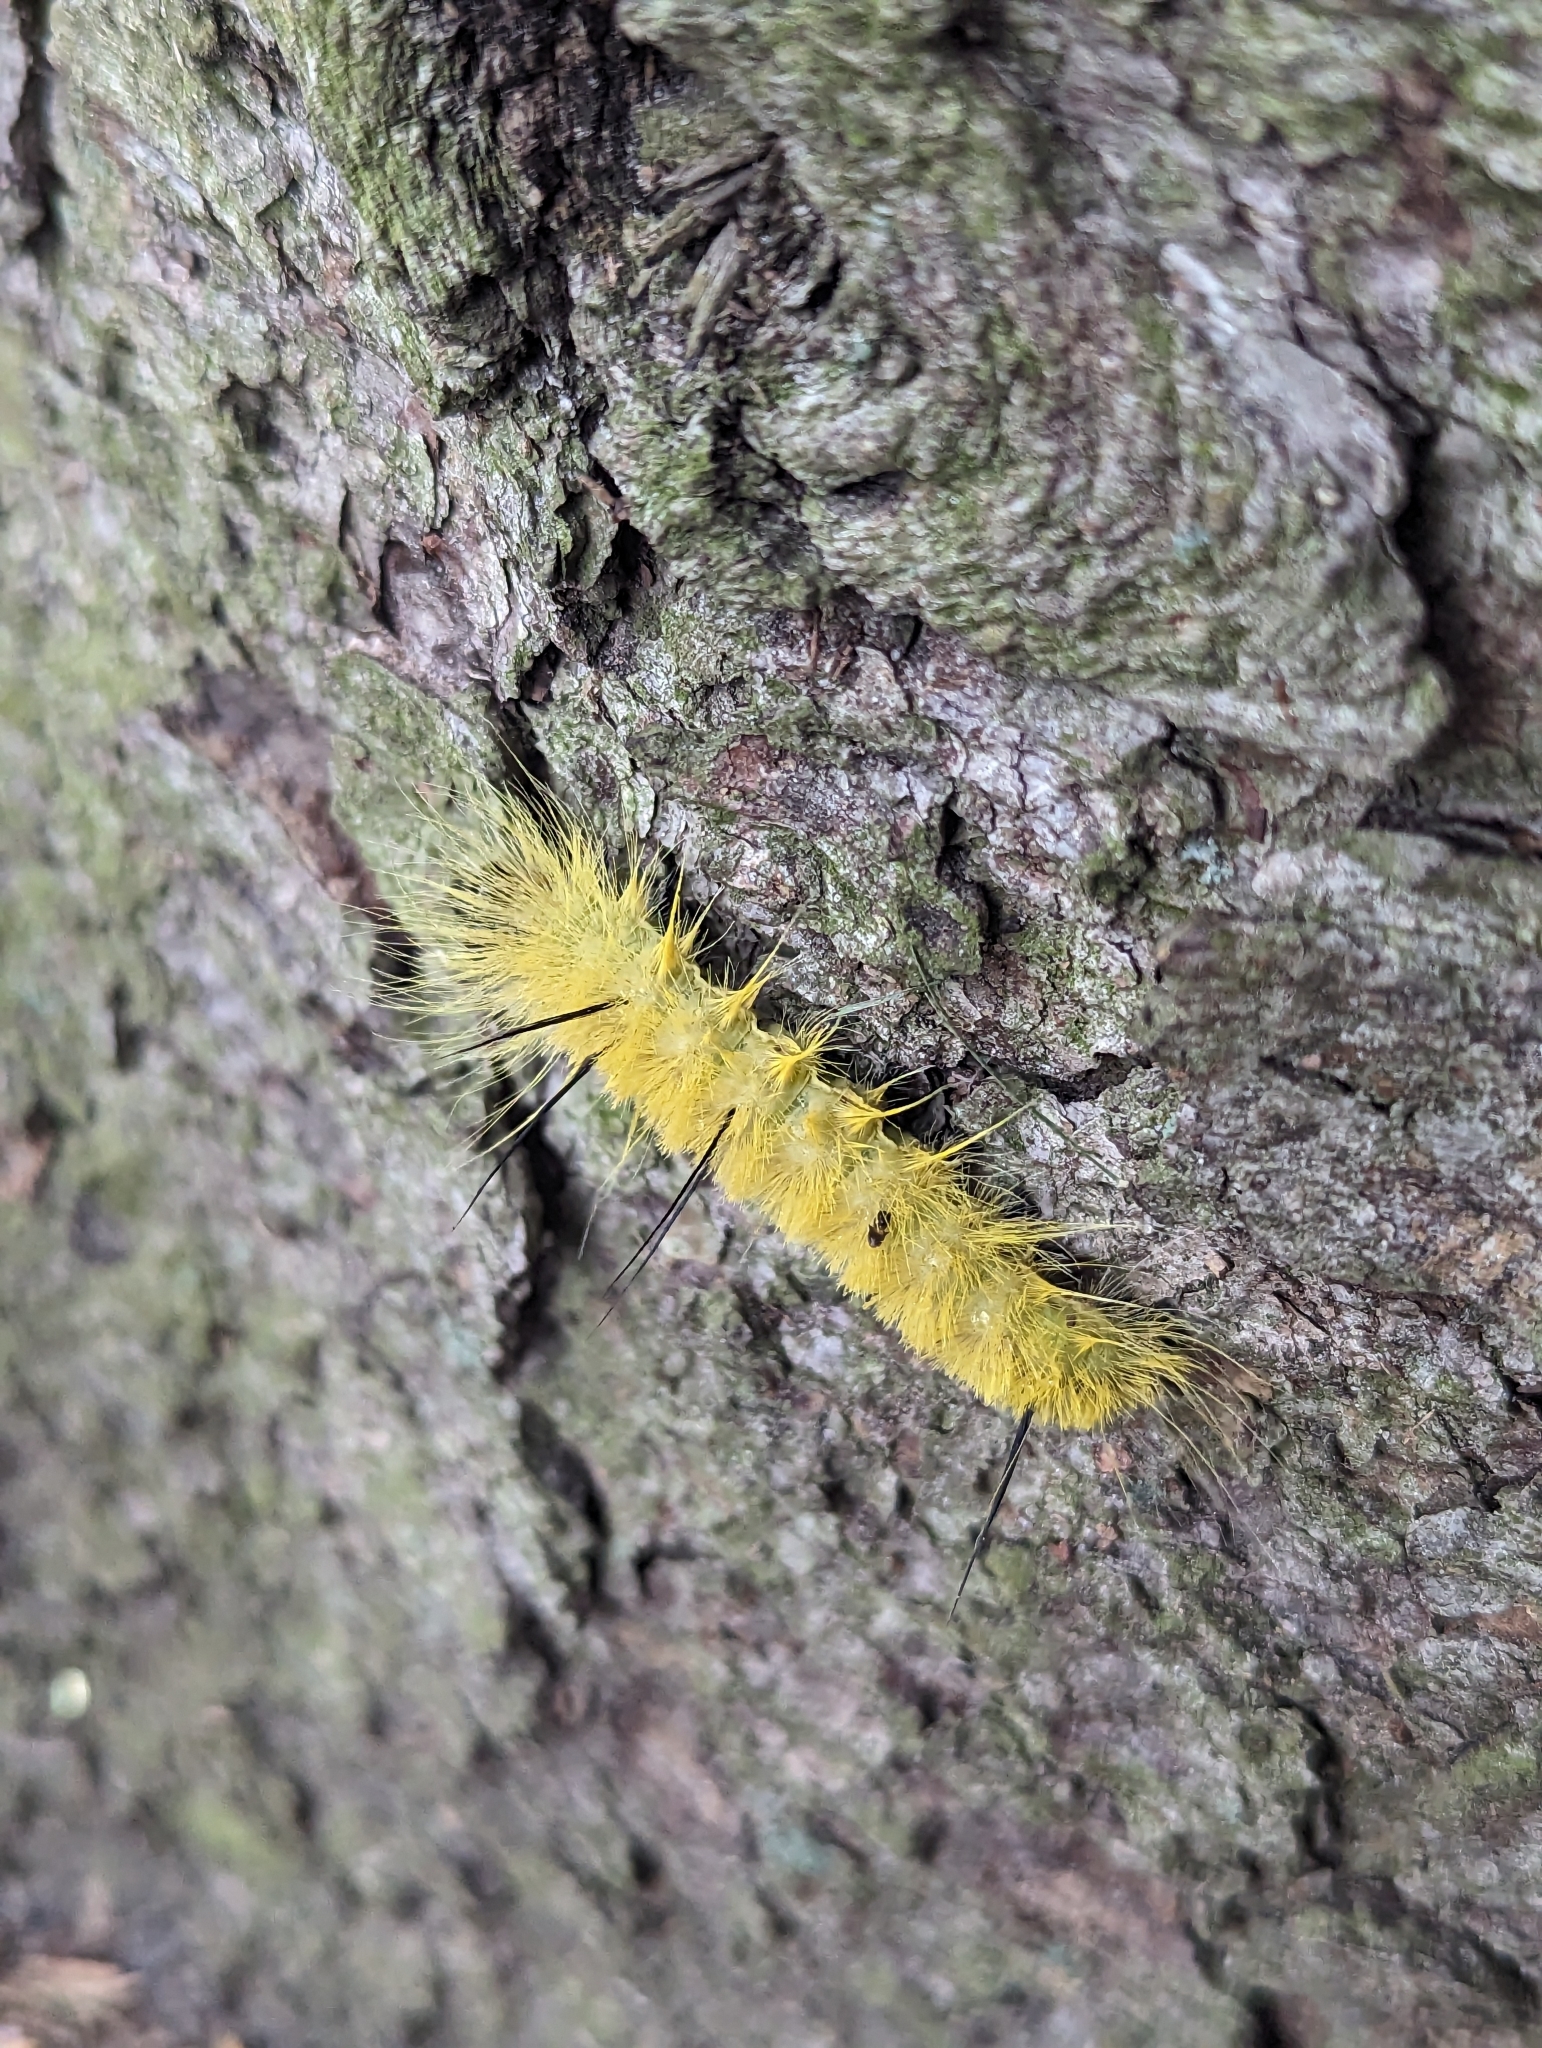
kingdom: Animalia
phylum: Arthropoda
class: Insecta
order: Lepidoptera
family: Noctuidae
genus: Acronicta
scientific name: Acronicta americana
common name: American dagger
